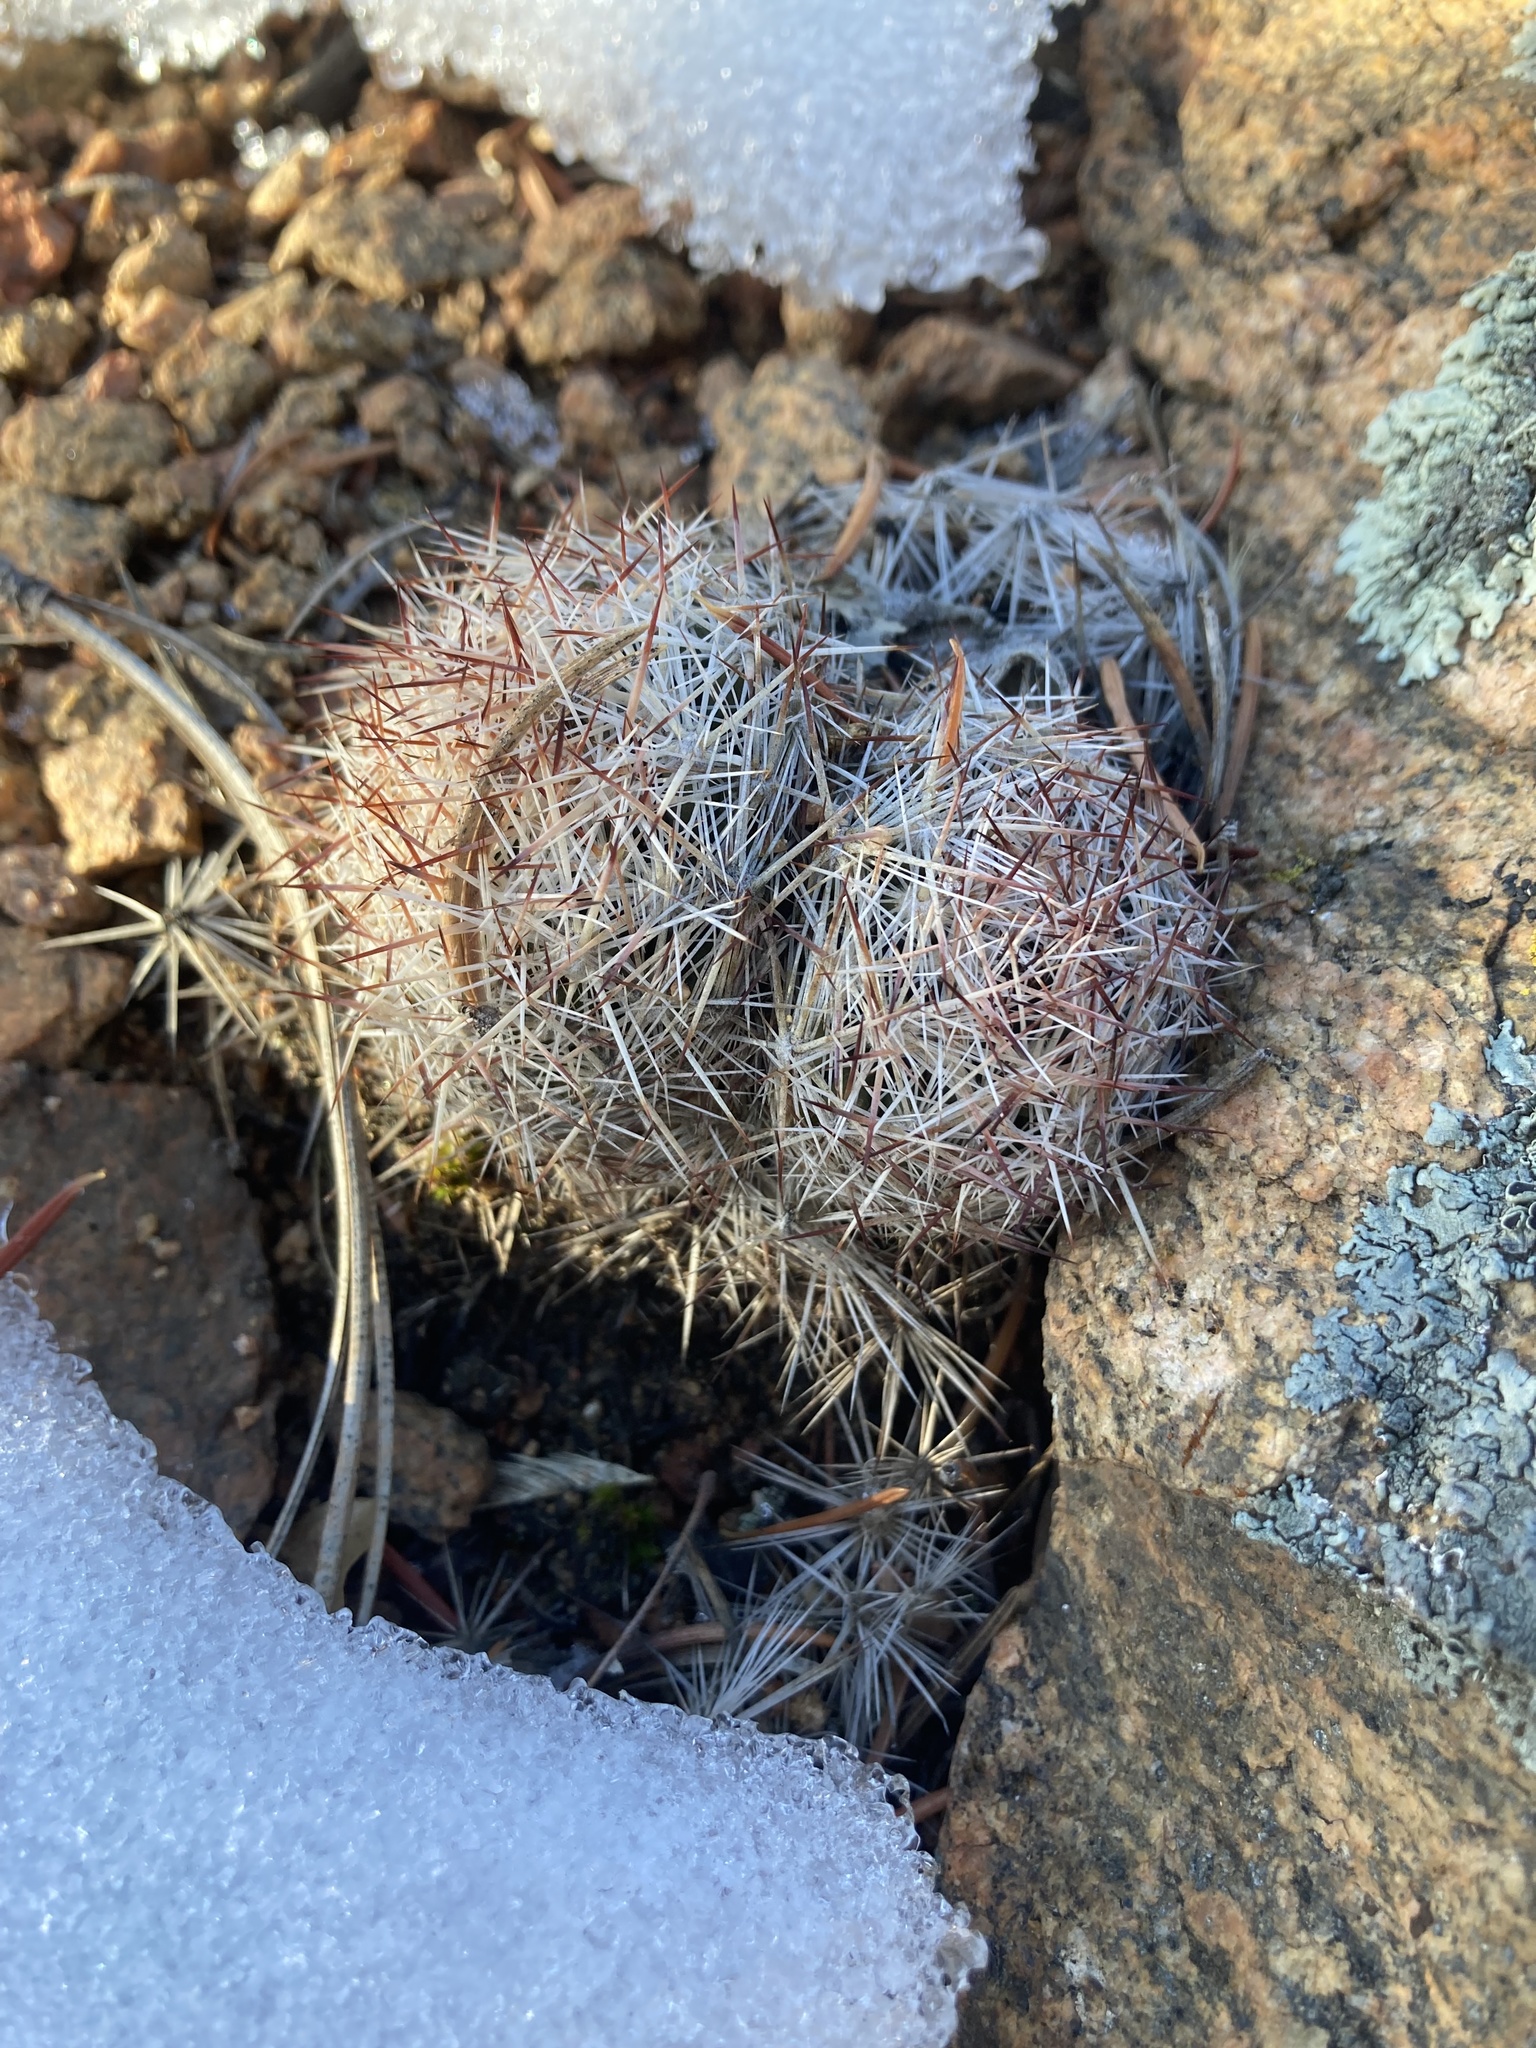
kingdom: Plantae
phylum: Tracheophyta
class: Magnoliopsida
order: Caryophyllales
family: Cactaceae
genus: Pelecyphora
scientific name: Pelecyphora vivipara
